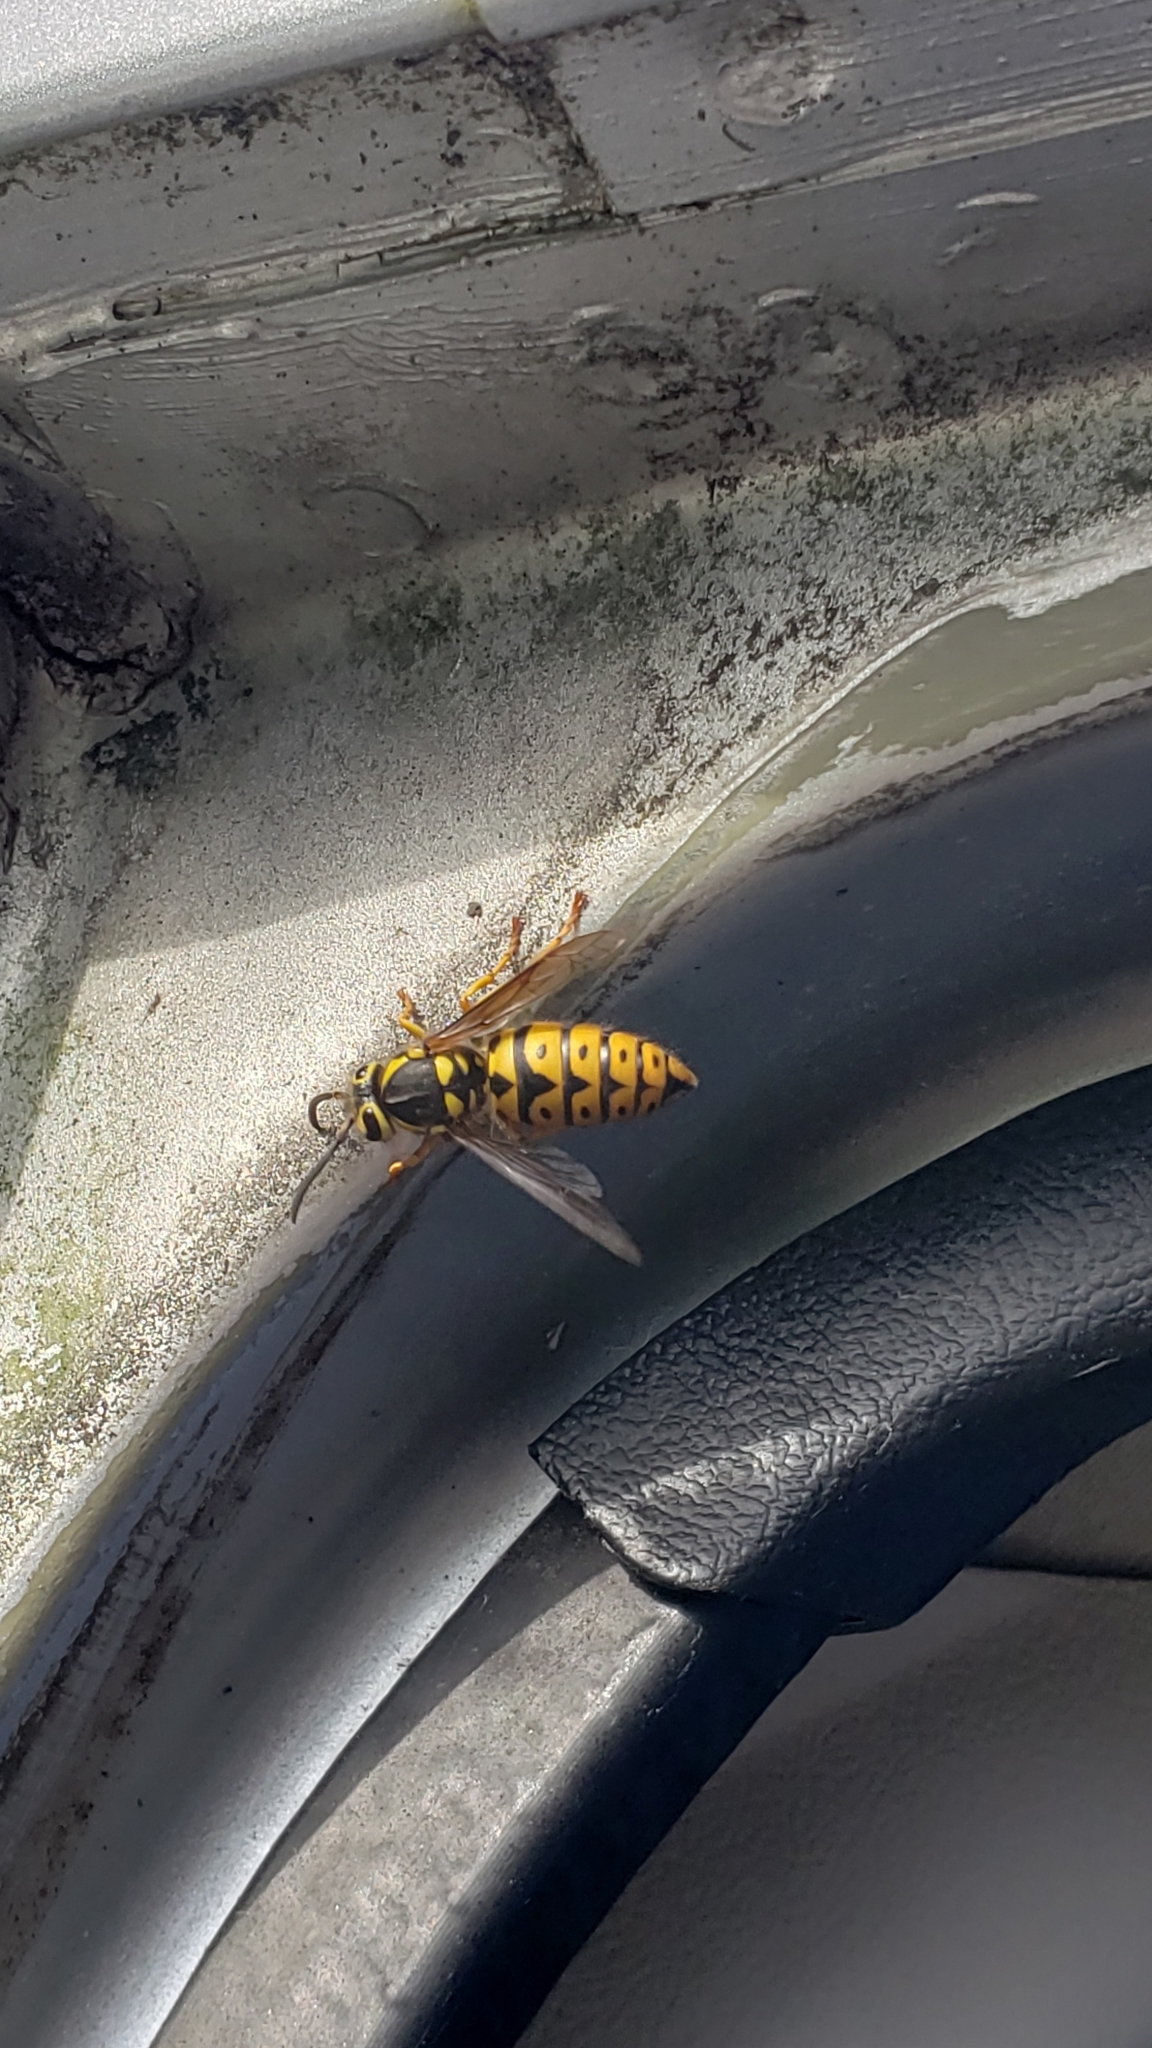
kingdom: Animalia
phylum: Arthropoda
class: Insecta
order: Hymenoptera
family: Vespidae
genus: Vespula
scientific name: Vespula pensylvanica
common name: Western yellowjacket
